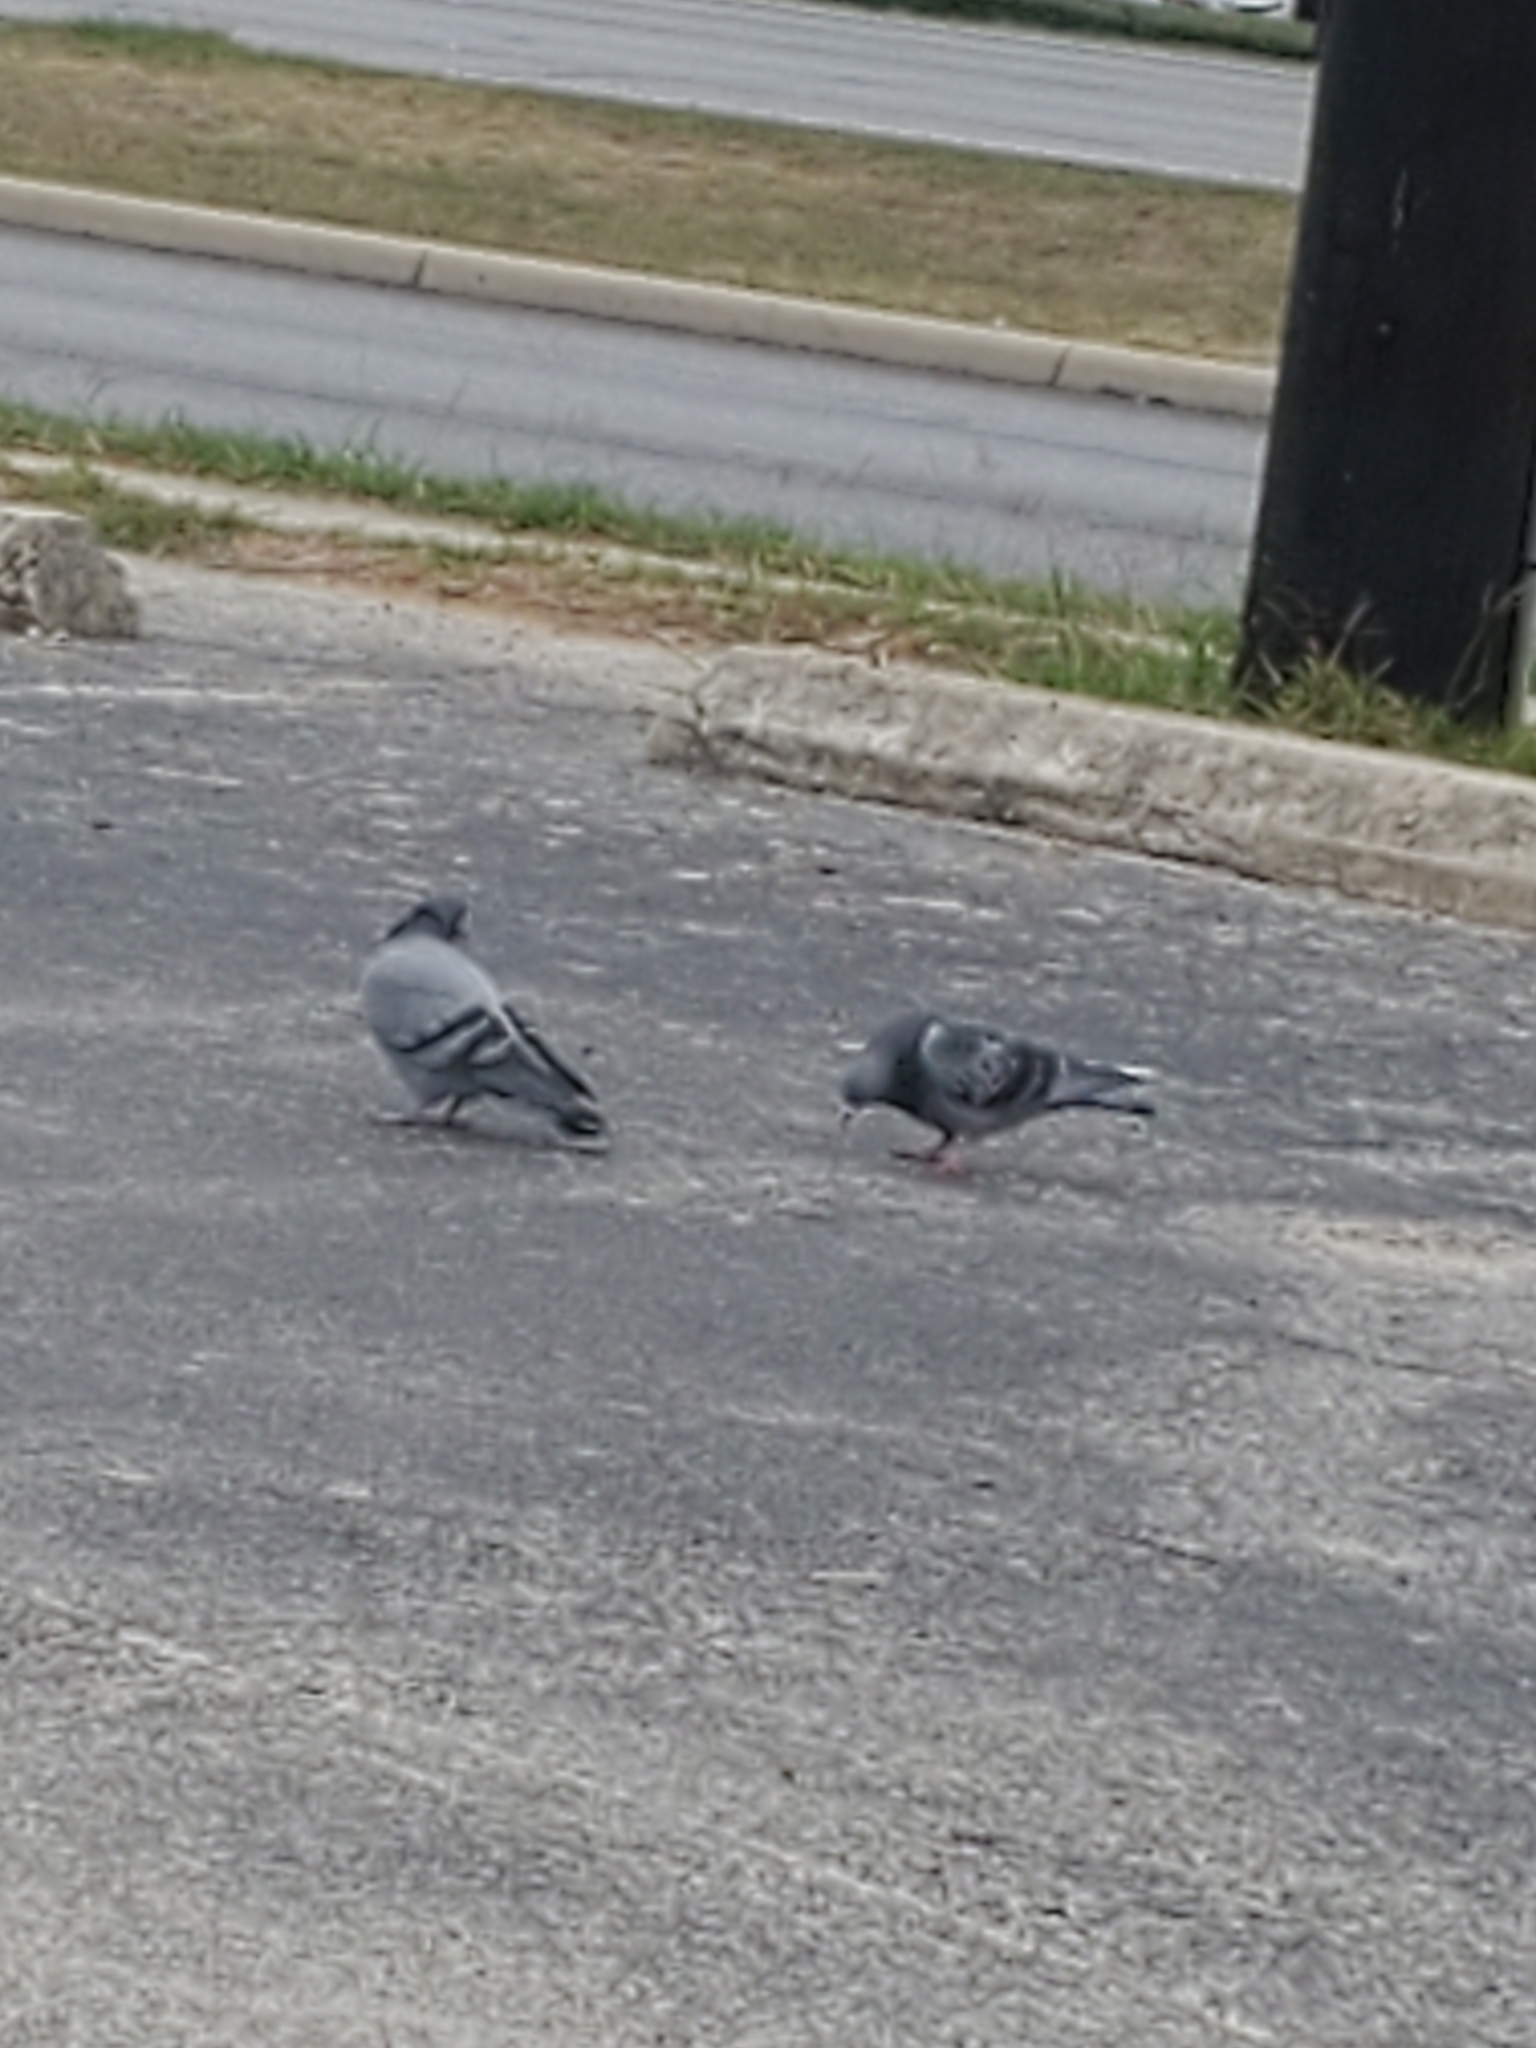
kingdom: Animalia
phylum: Chordata
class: Aves
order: Columbiformes
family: Columbidae
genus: Columba
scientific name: Columba livia
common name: Rock pigeon
